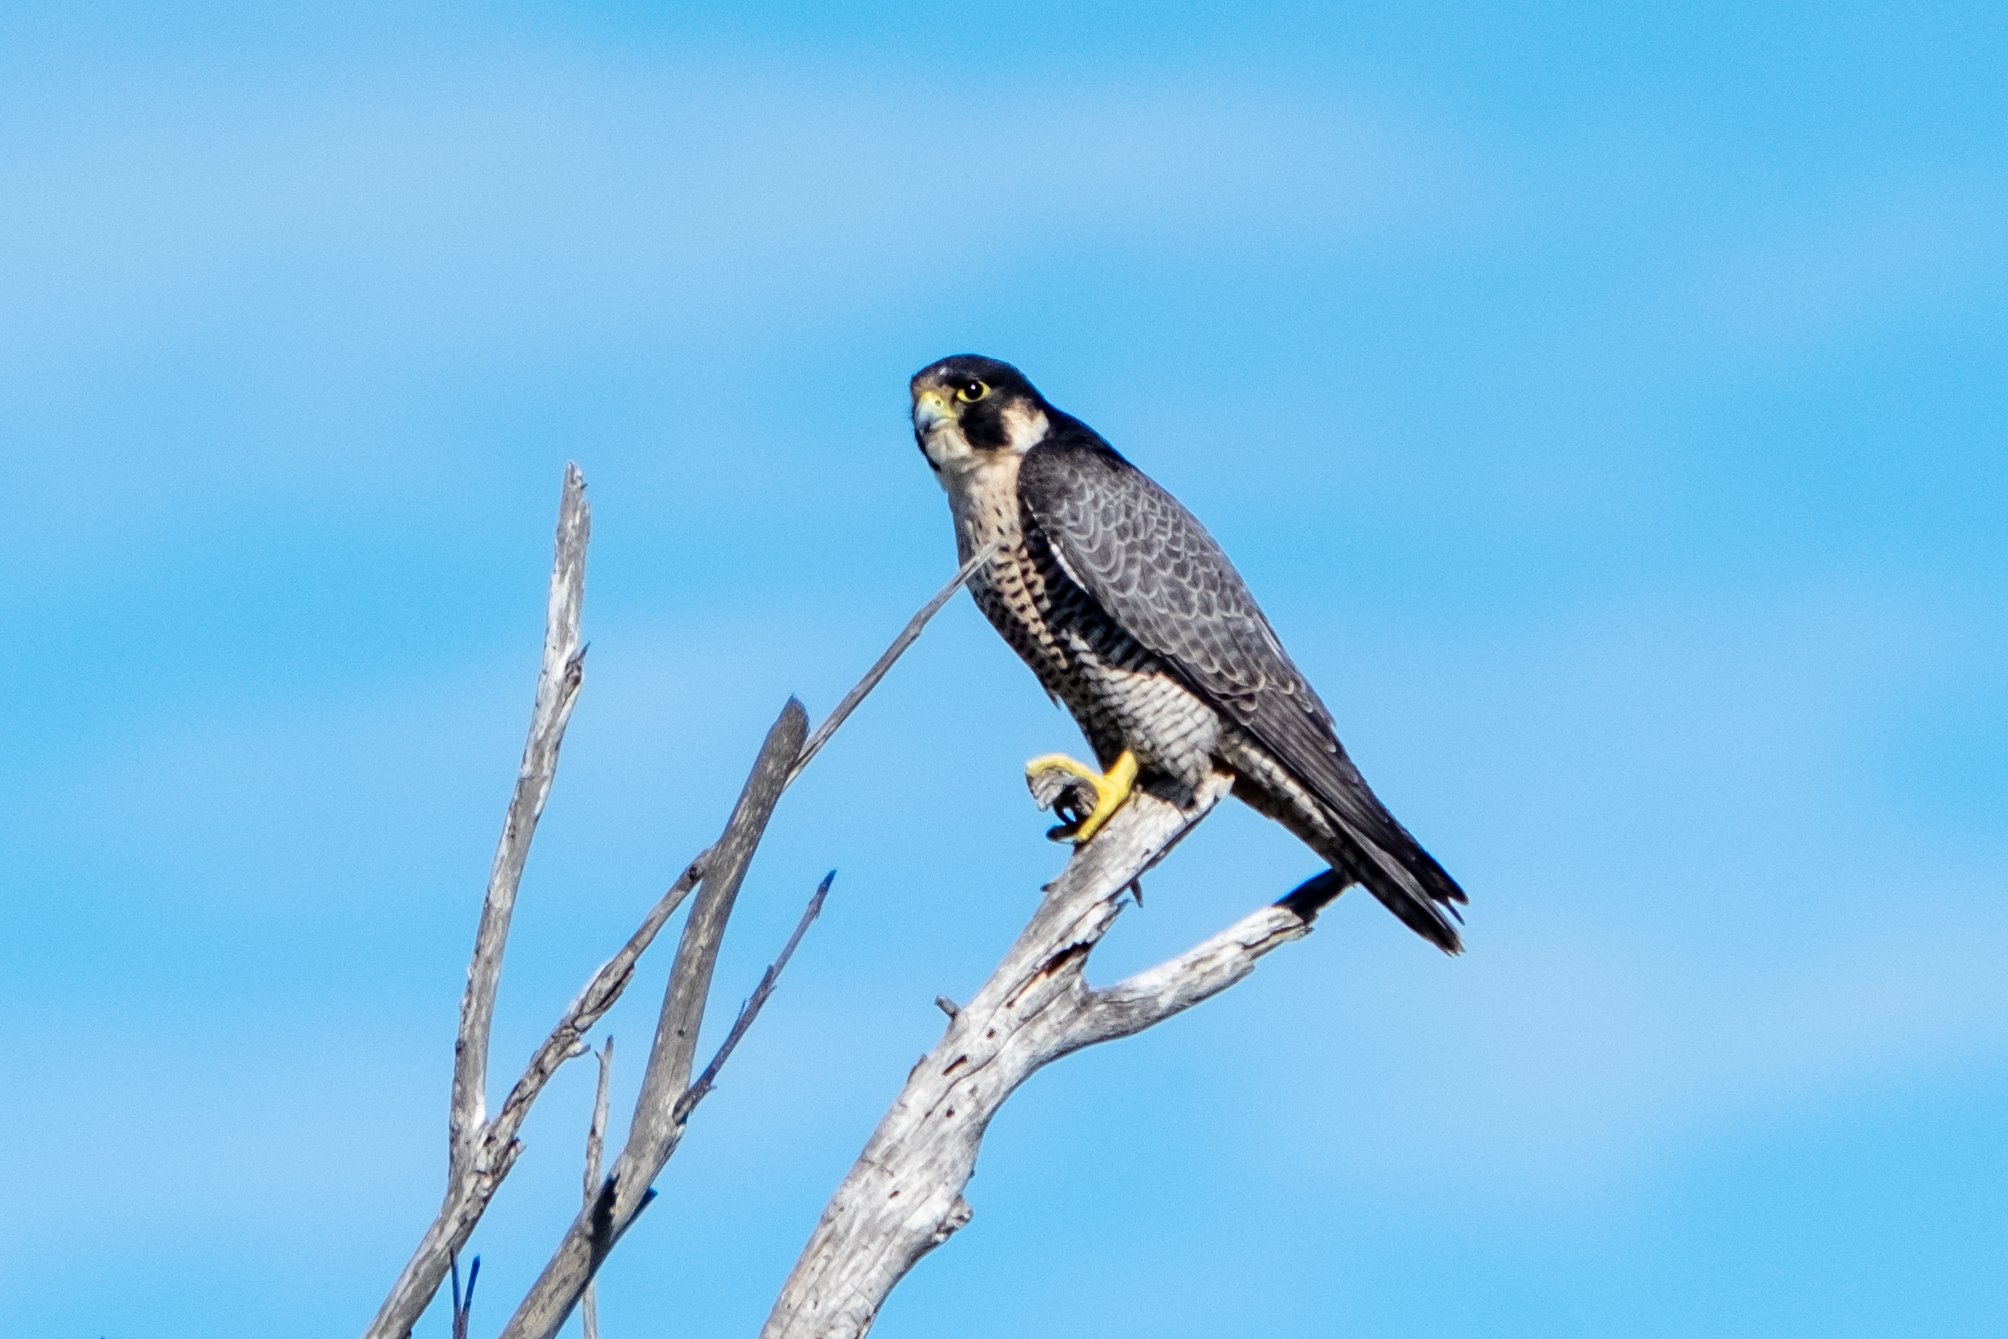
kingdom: Animalia
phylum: Chordata
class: Aves
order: Falconiformes
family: Falconidae
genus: Falco
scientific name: Falco peregrinus
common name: Peregrine falcon
